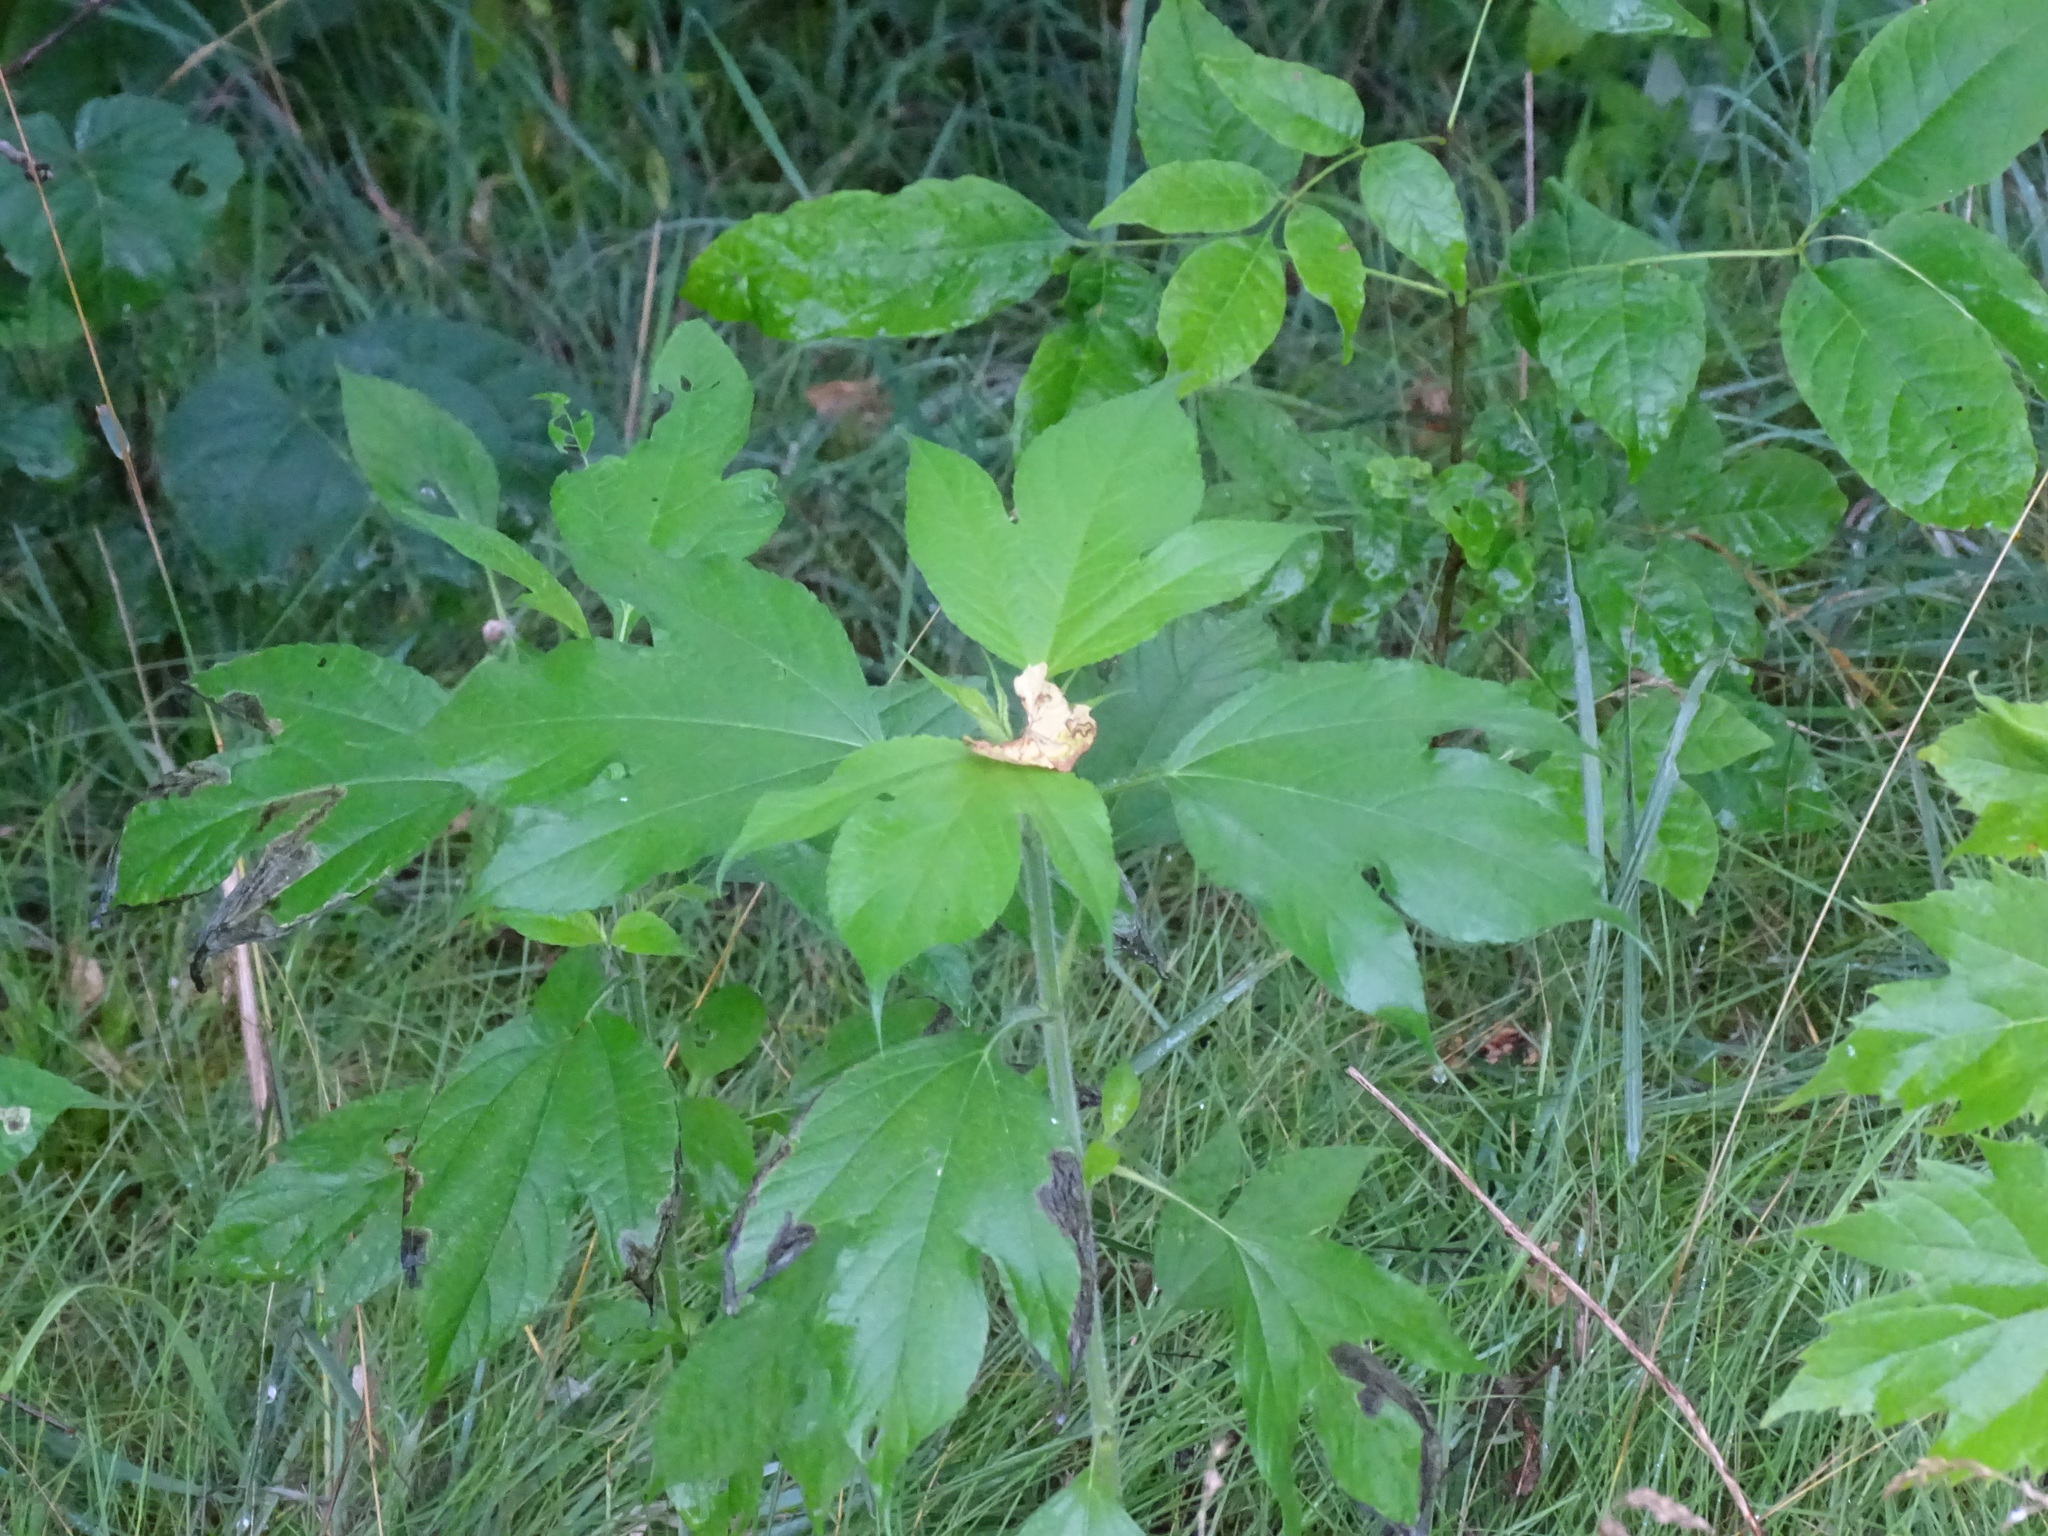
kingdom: Plantae
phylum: Tracheophyta
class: Magnoliopsida
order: Asterales
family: Asteraceae
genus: Ambrosia
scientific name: Ambrosia trifida
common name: Giant ragweed
